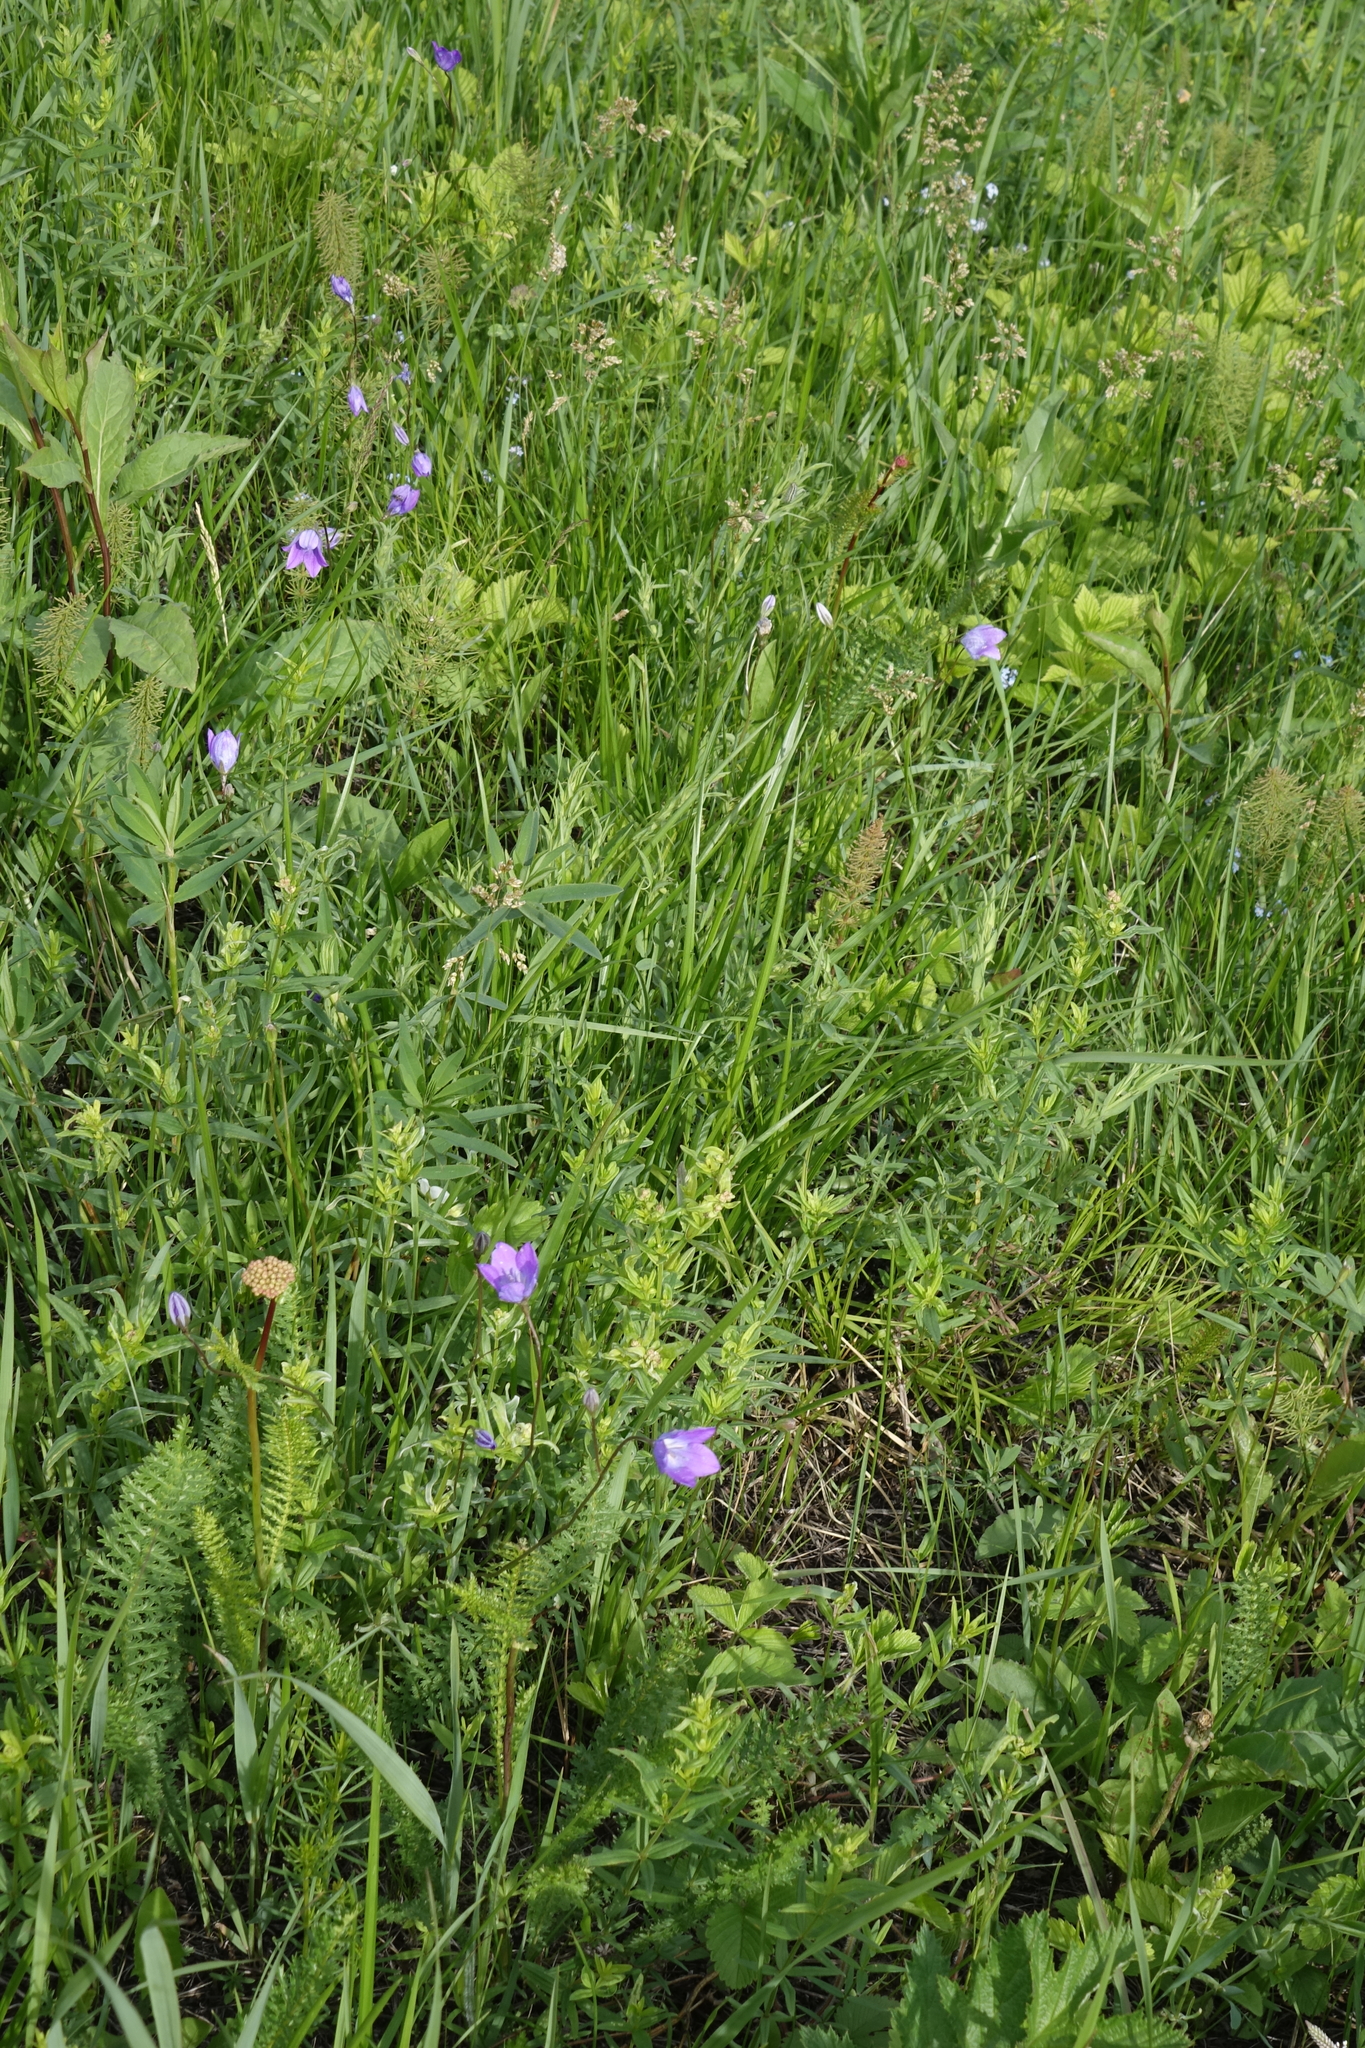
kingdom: Plantae
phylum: Tracheophyta
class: Magnoliopsida
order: Asterales
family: Campanulaceae
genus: Campanula
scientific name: Campanula stevenii
